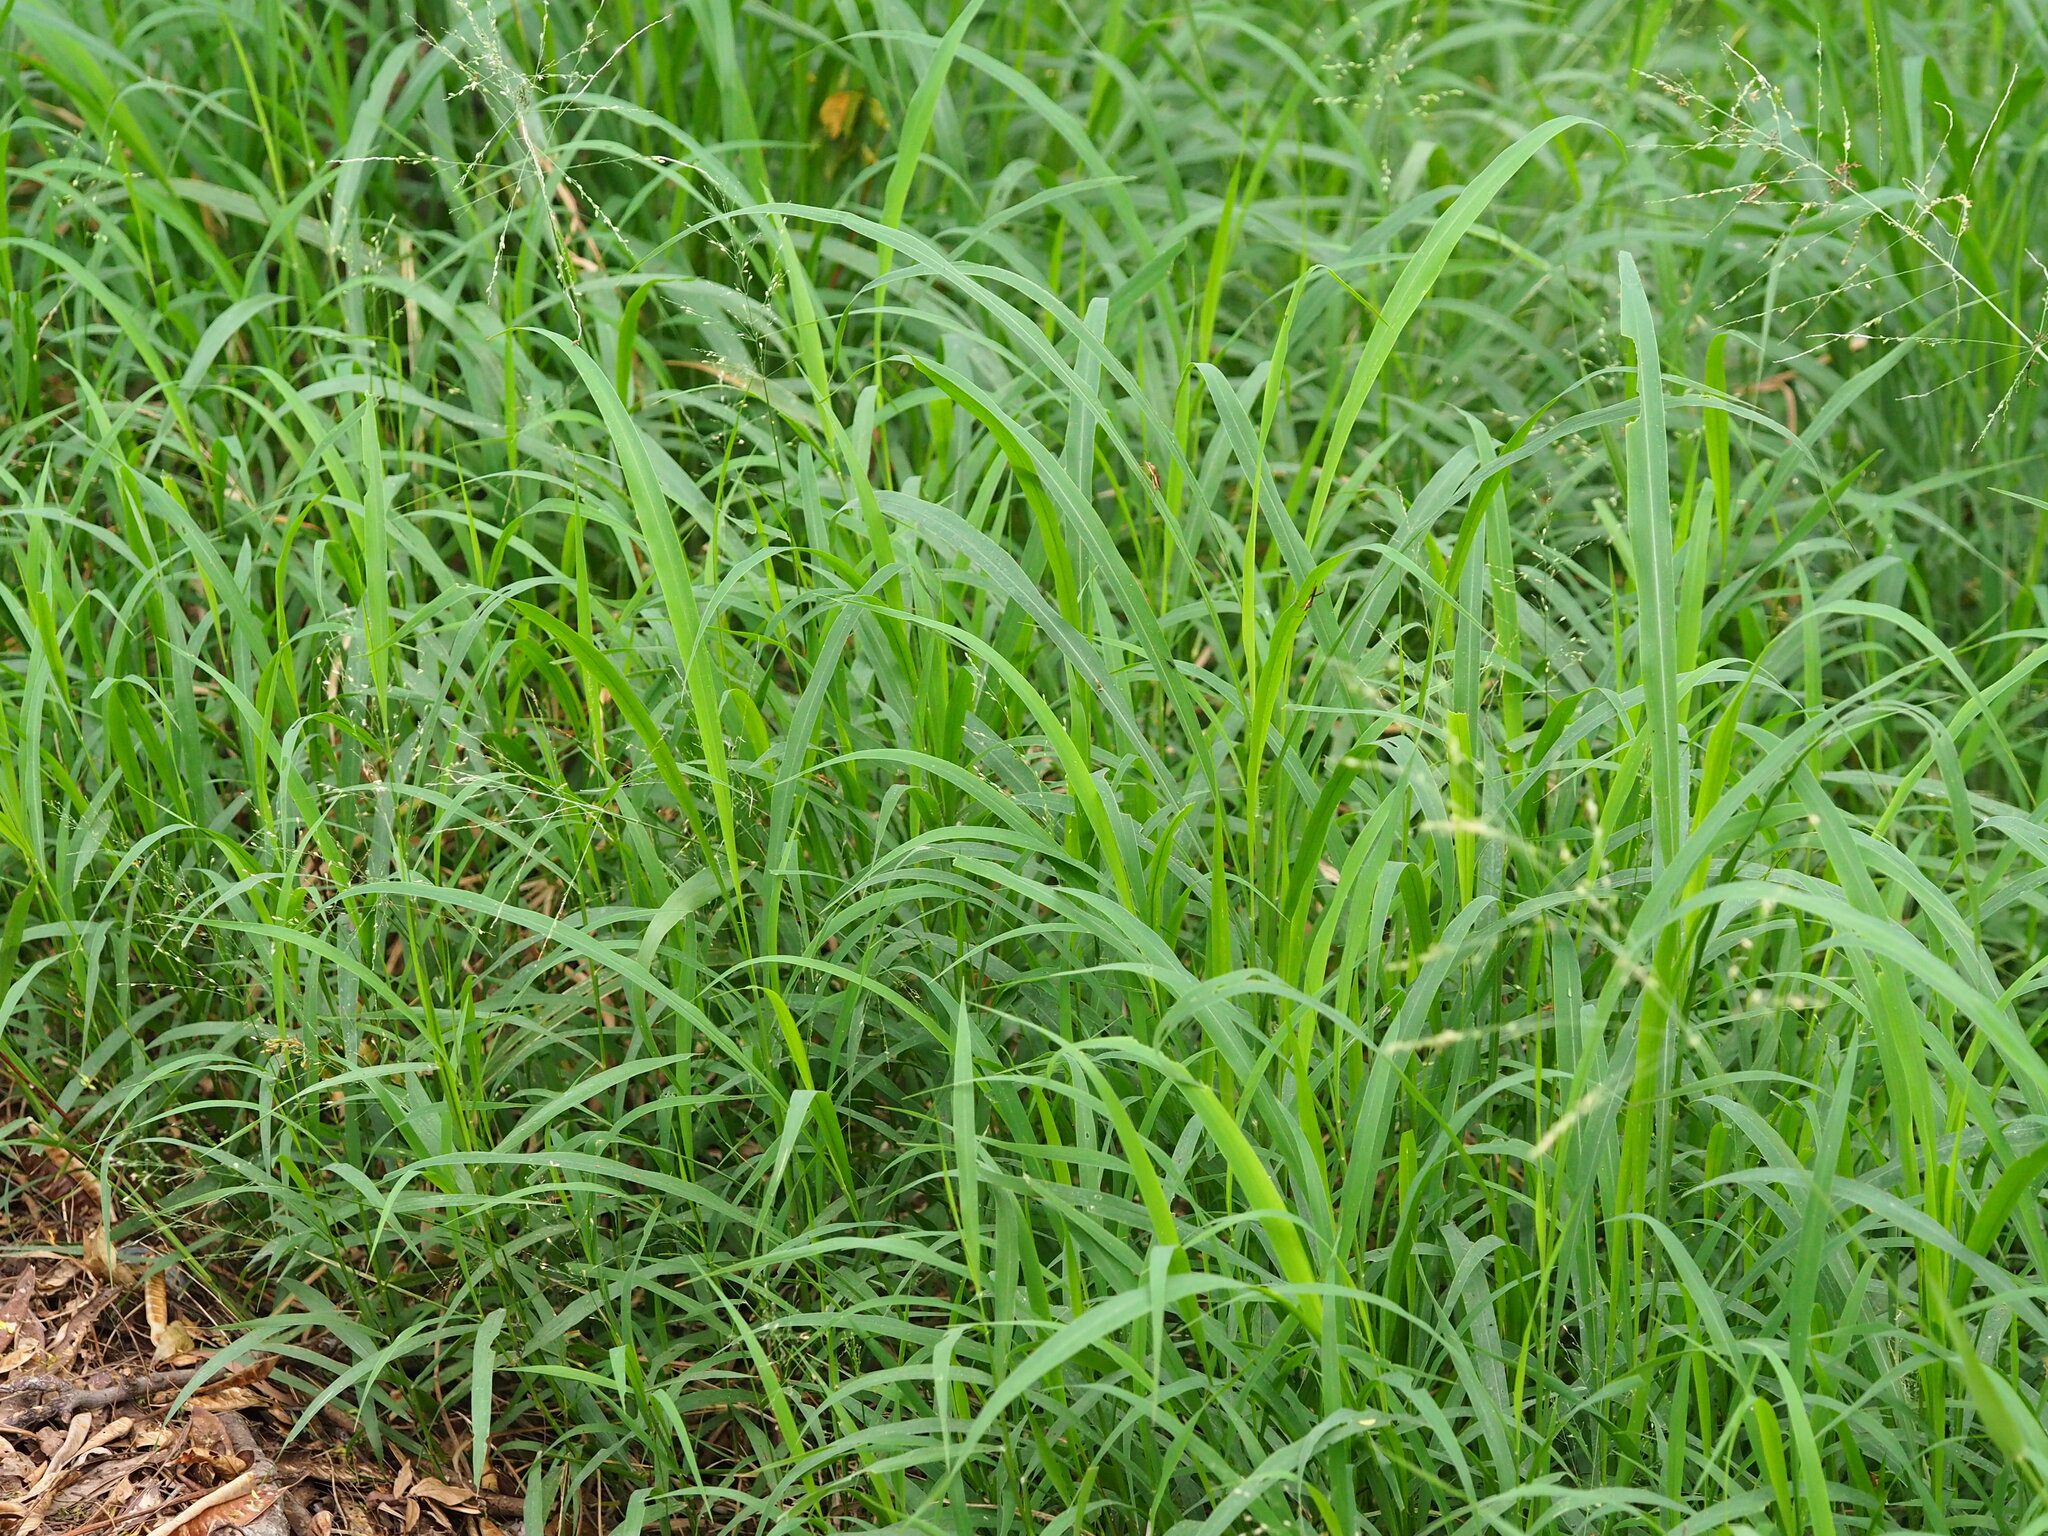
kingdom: Plantae
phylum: Tracheophyta
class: Liliopsida
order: Poales
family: Poaceae
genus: Megathyrsus
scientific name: Megathyrsus maximus
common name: Guineagrass
